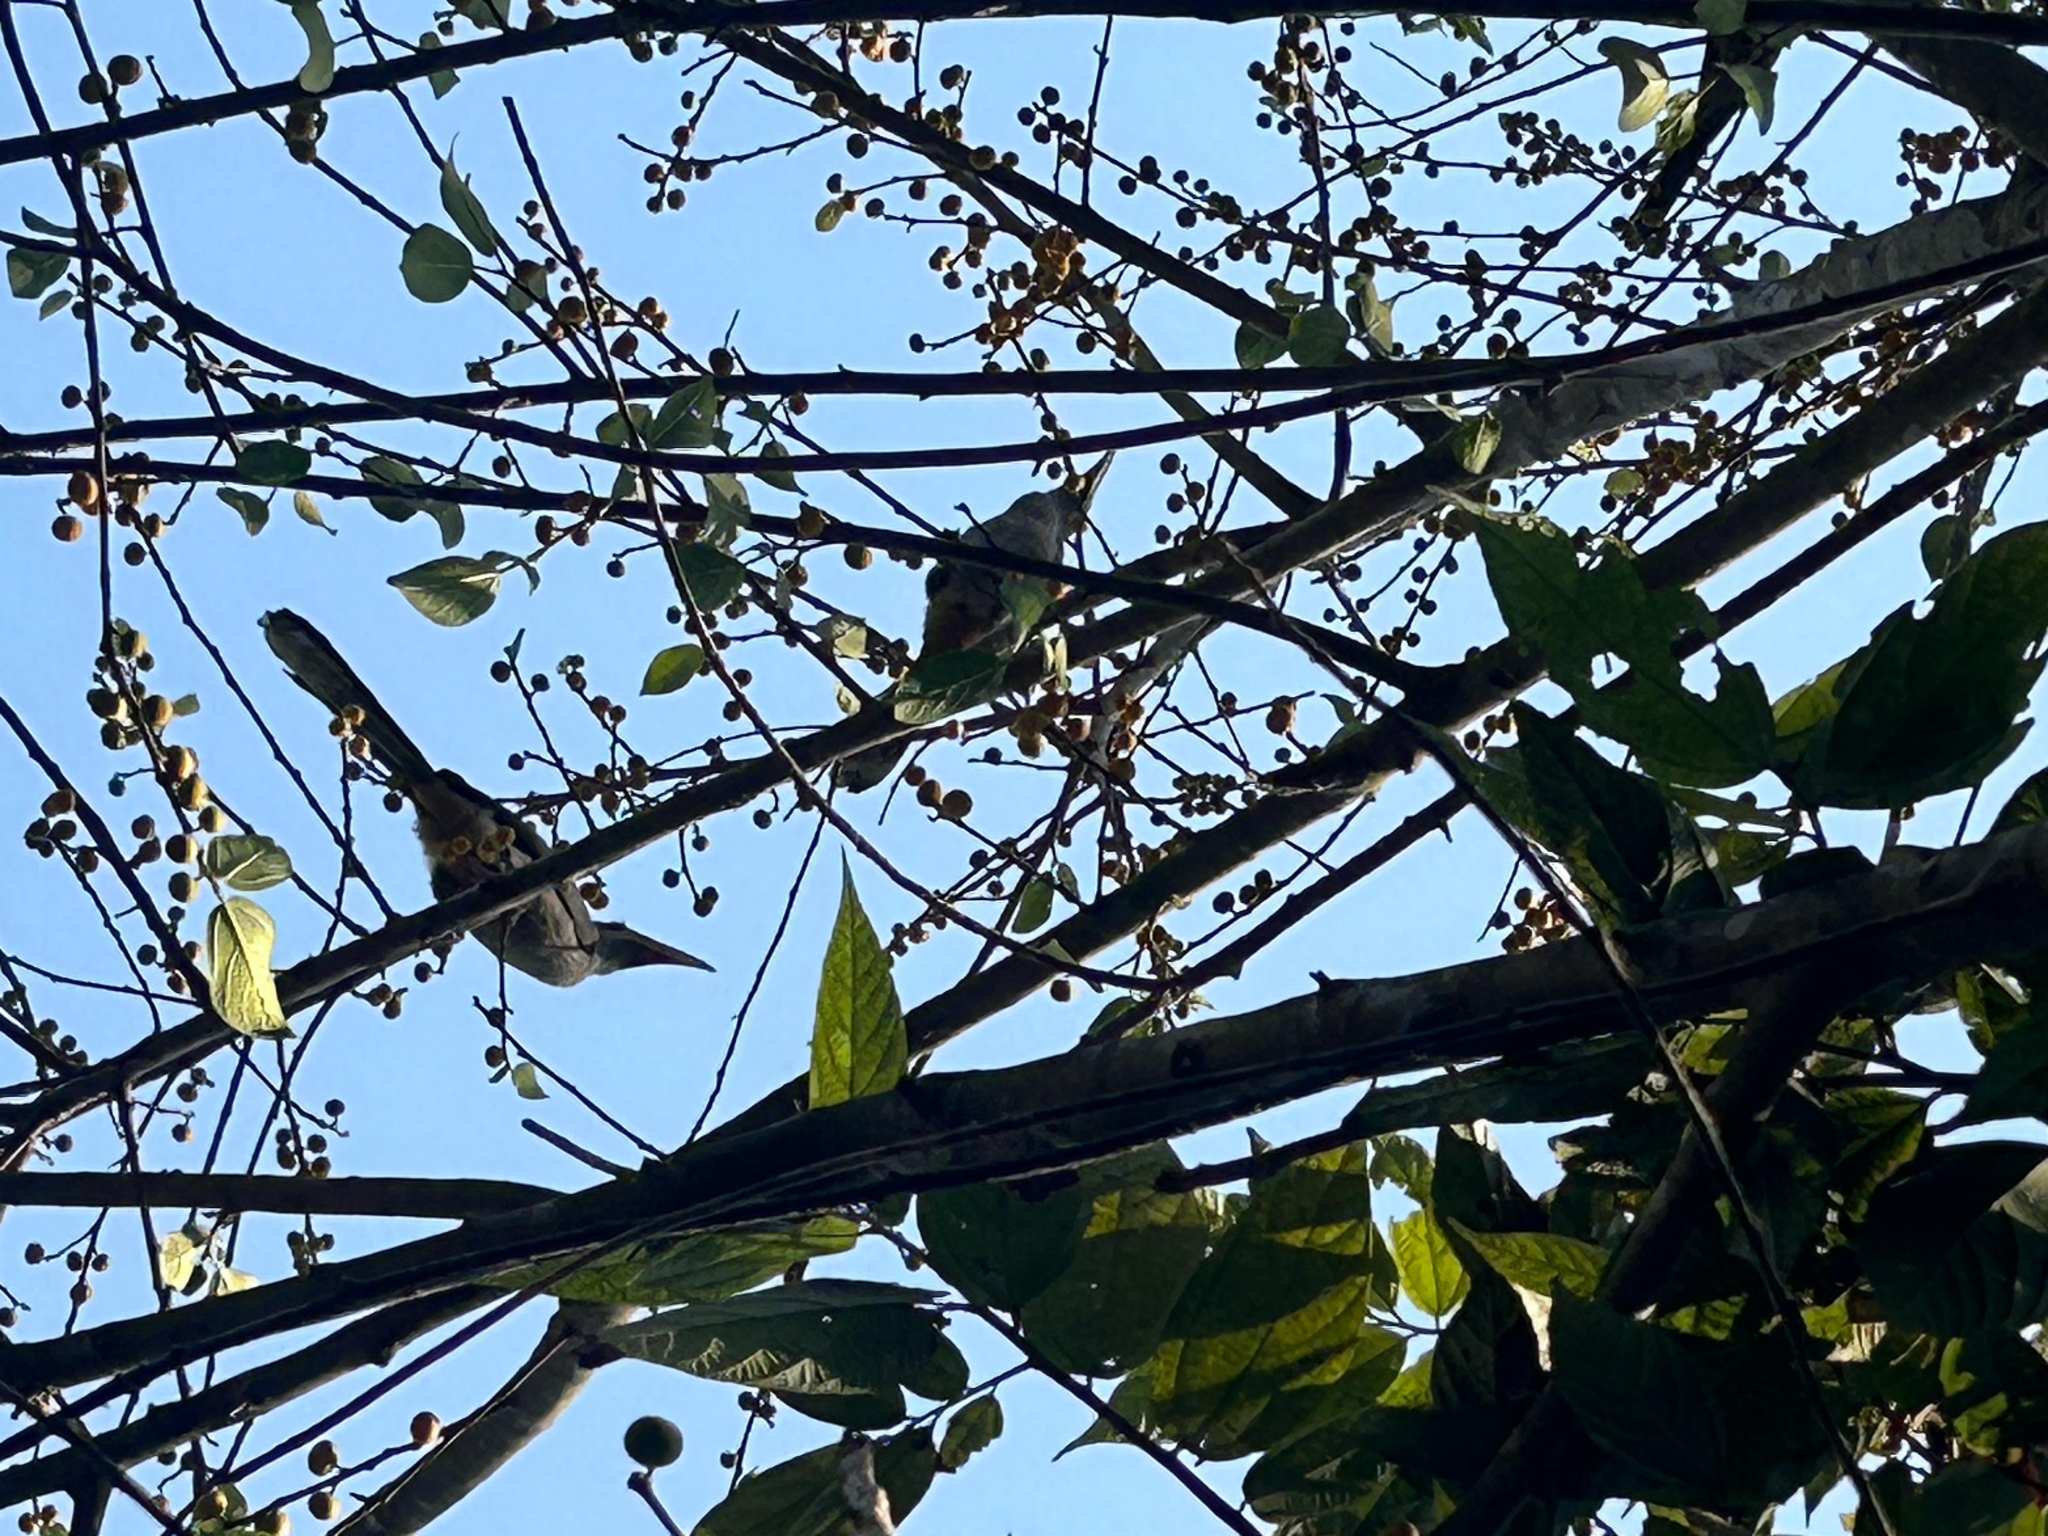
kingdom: Animalia
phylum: Chordata
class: Aves
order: Bucerotiformes
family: Bucerotidae
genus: Ocyceros
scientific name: Ocyceros birostris
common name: Indian grey hornbill
